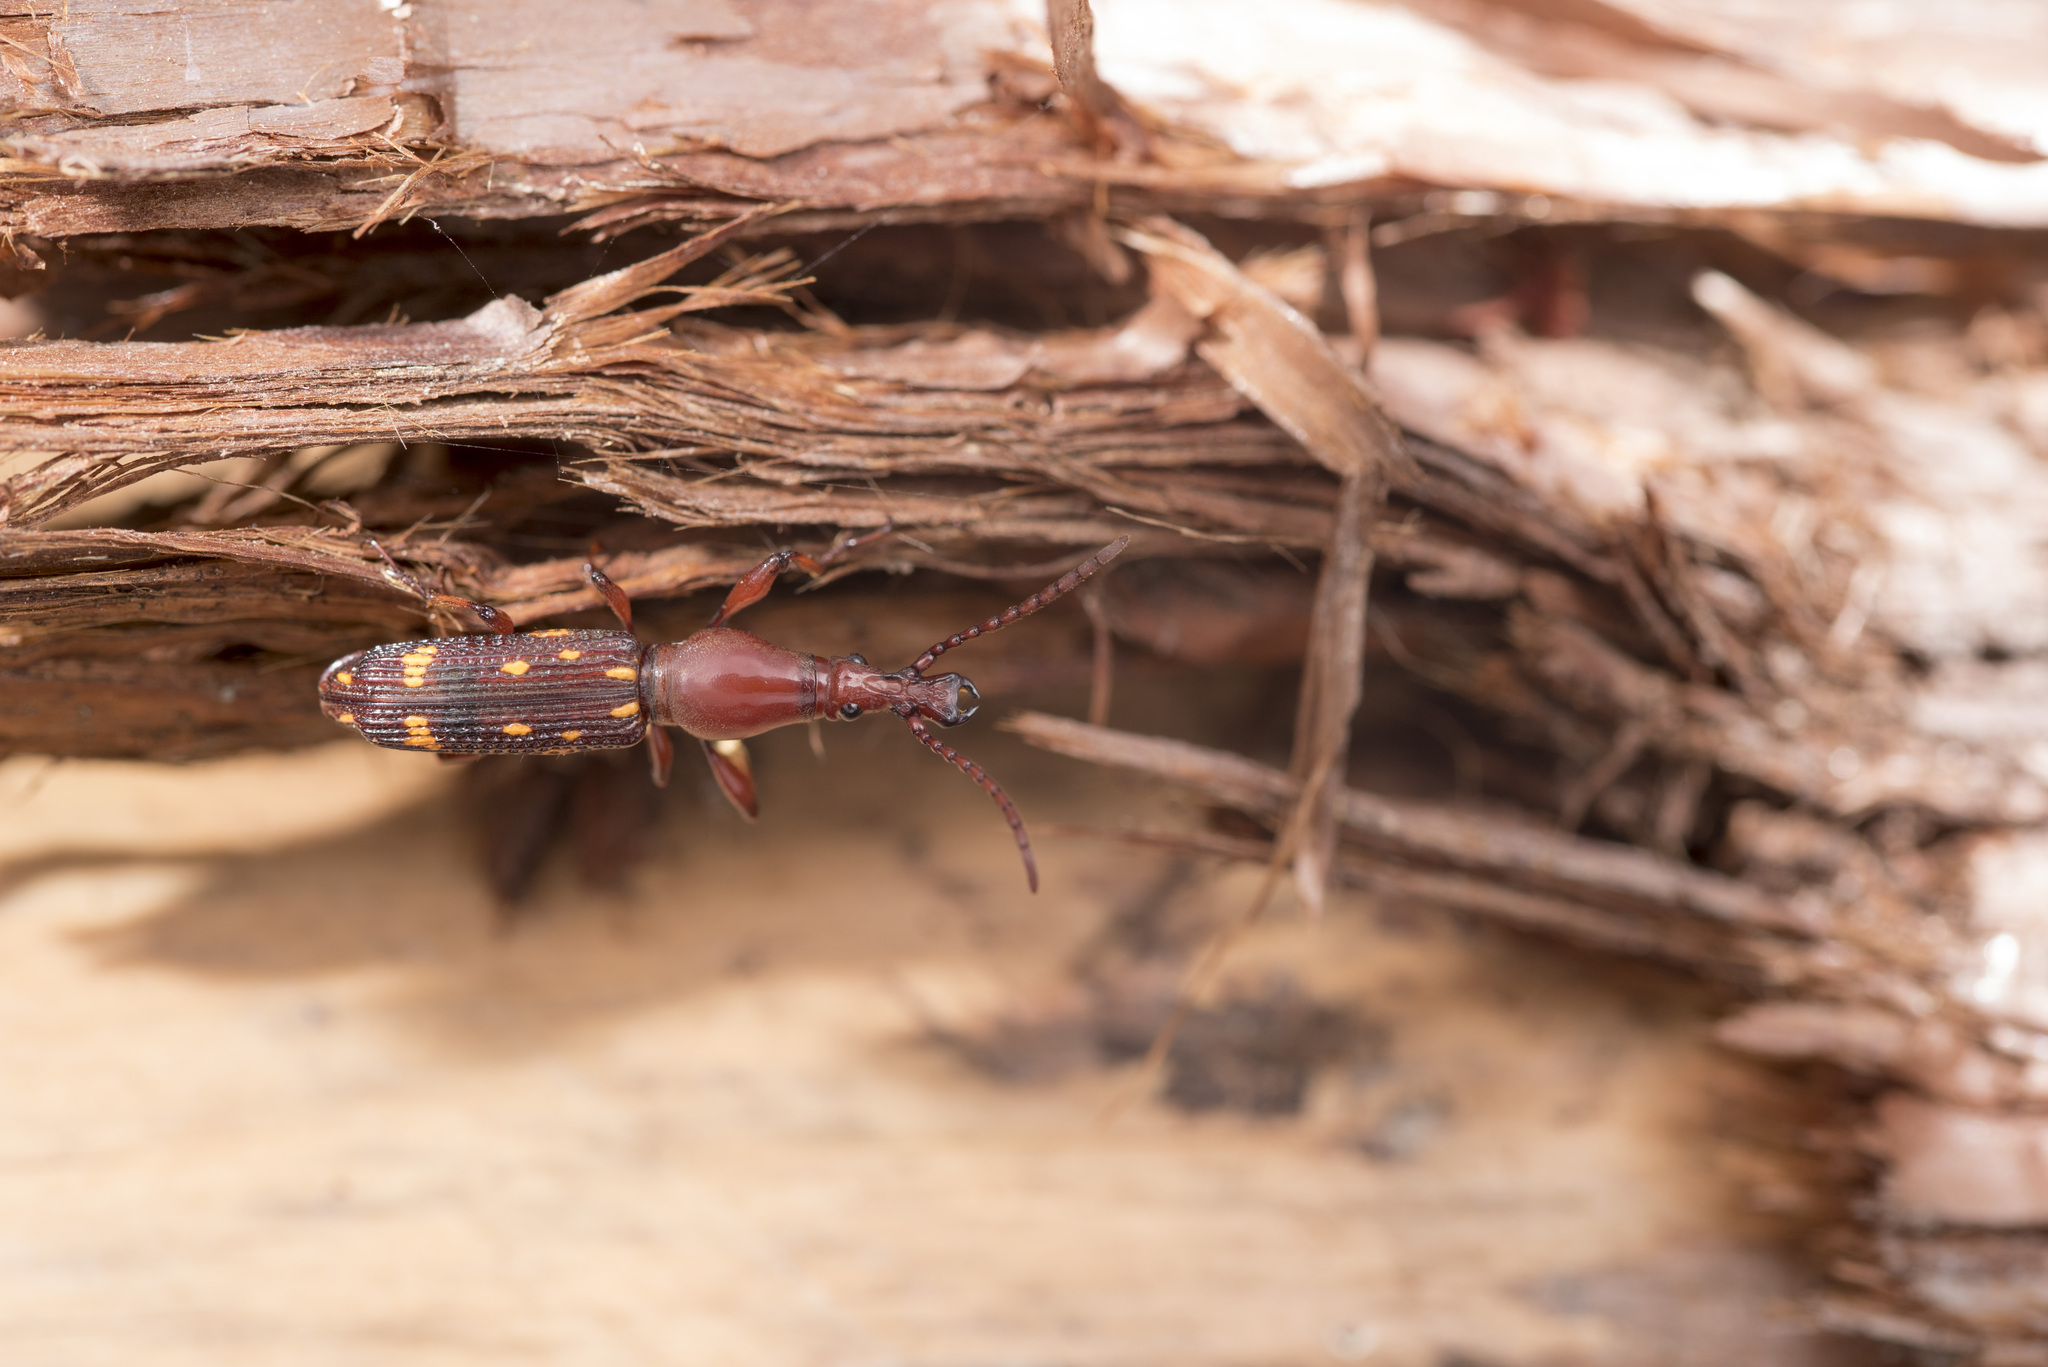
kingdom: Animalia
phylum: Arthropoda
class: Insecta
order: Coleoptera
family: Brentidae
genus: Baryrhynchus
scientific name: Baryrhynchus poweri
